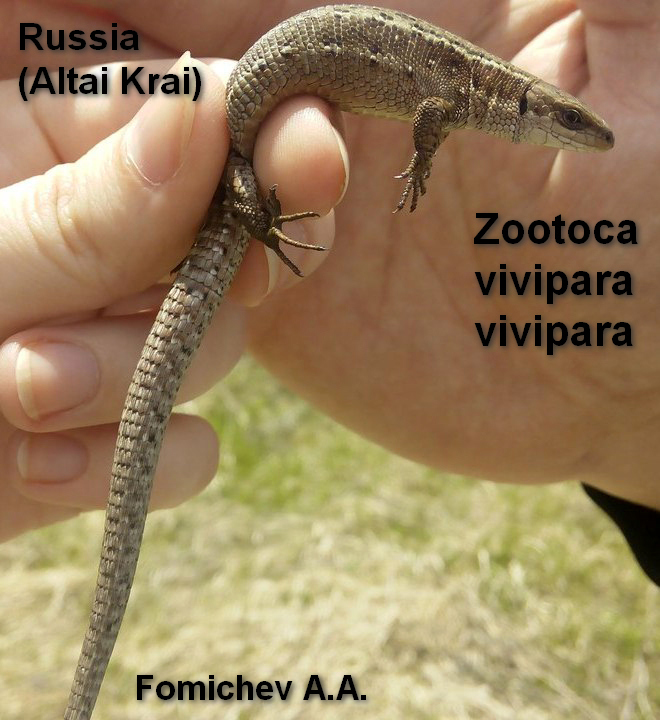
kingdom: Animalia
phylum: Chordata
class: Squamata
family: Lacertidae
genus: Zootoca
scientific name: Zootoca vivipara
